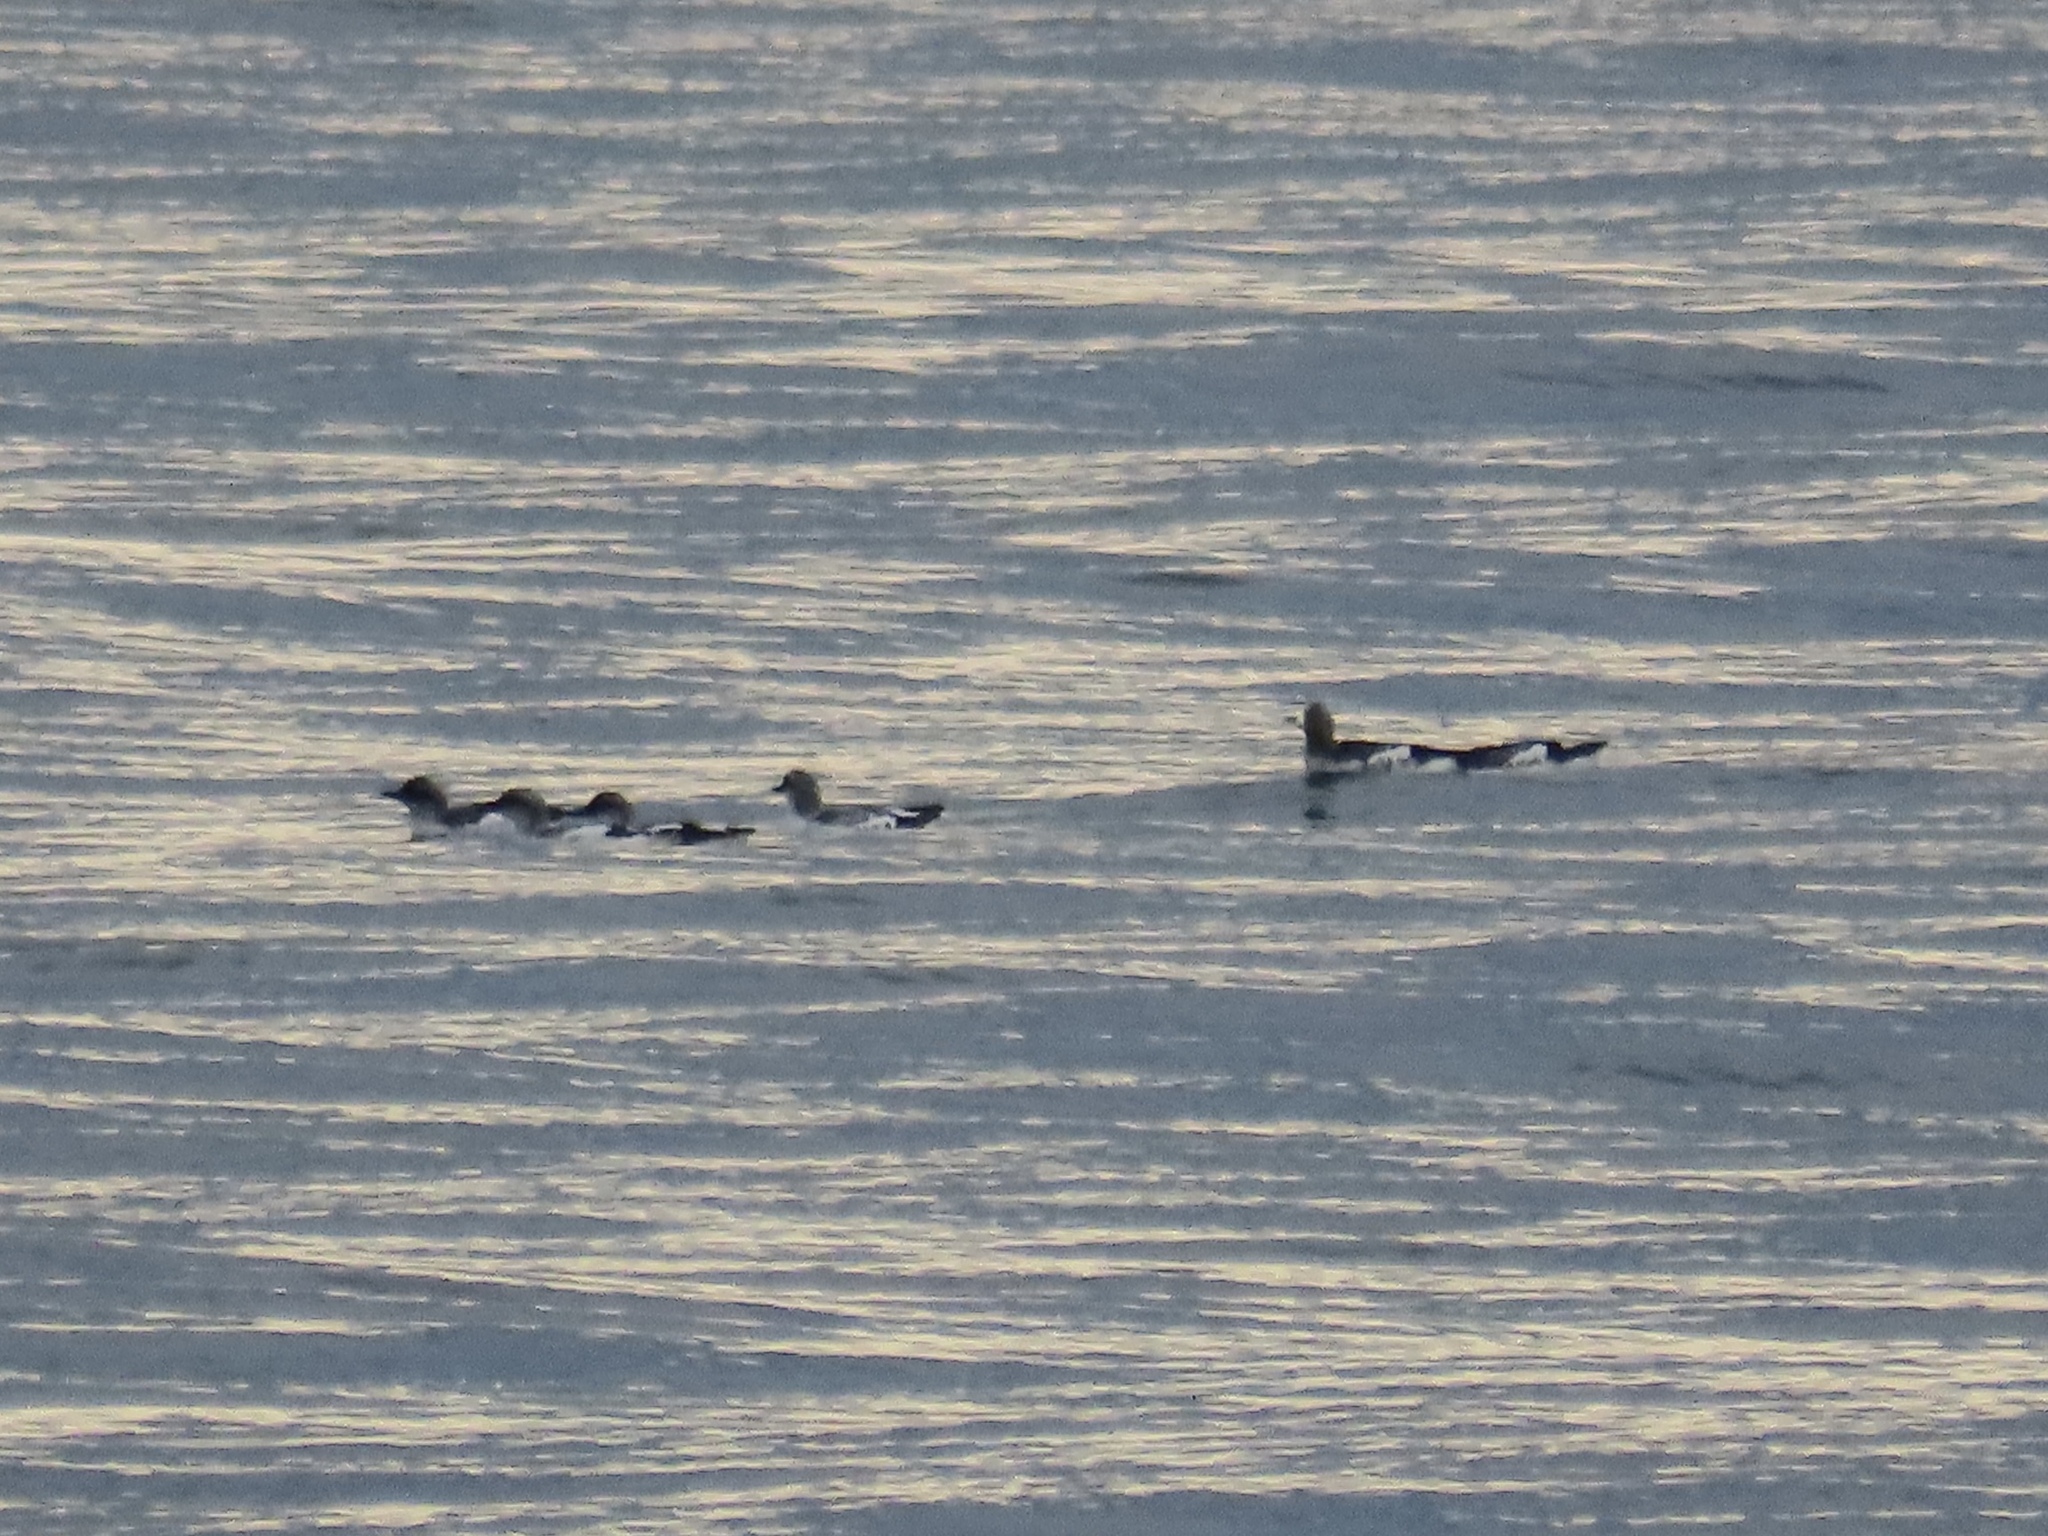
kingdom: Animalia
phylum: Chordata
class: Aves
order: Charadriiformes
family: Alcidae
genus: Cepphus
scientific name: Cepphus columba
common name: Pigeon guillemot
